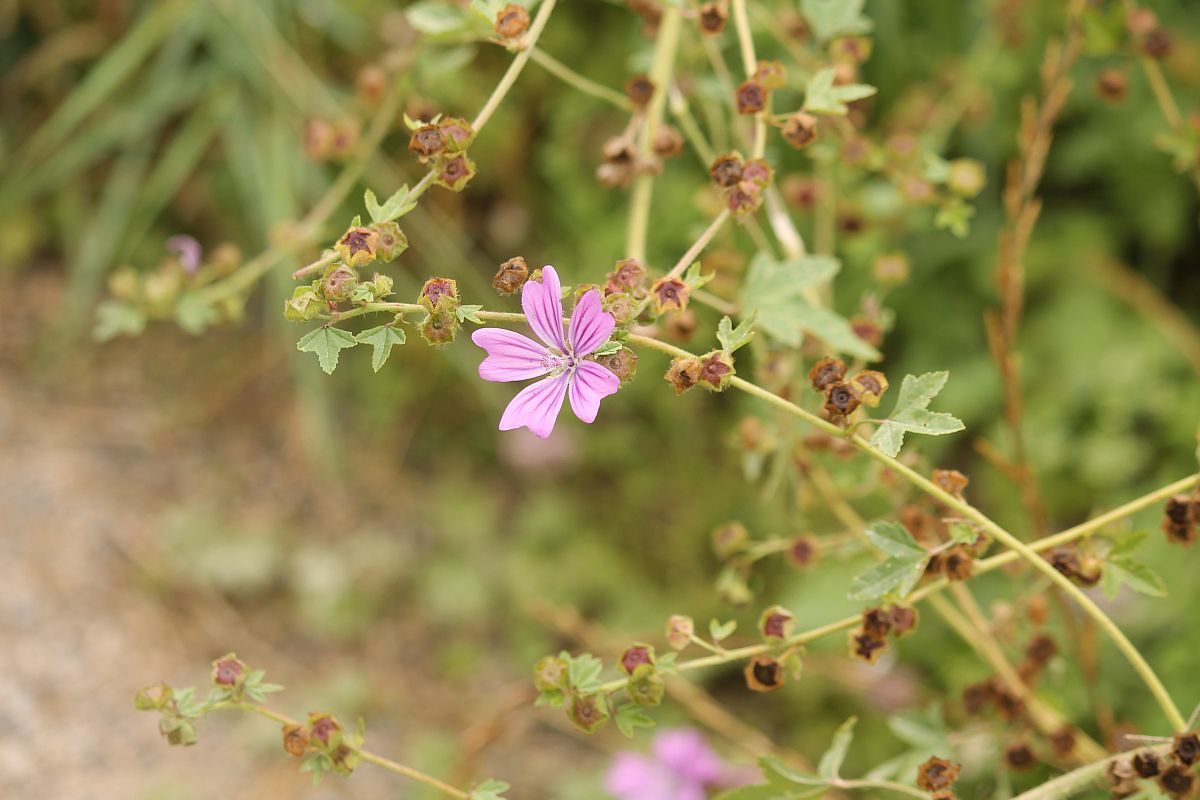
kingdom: Plantae
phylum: Tracheophyta
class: Magnoliopsida
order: Malvales
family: Malvaceae
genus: Malva
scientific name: Malva sylvestris
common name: Common mallow
